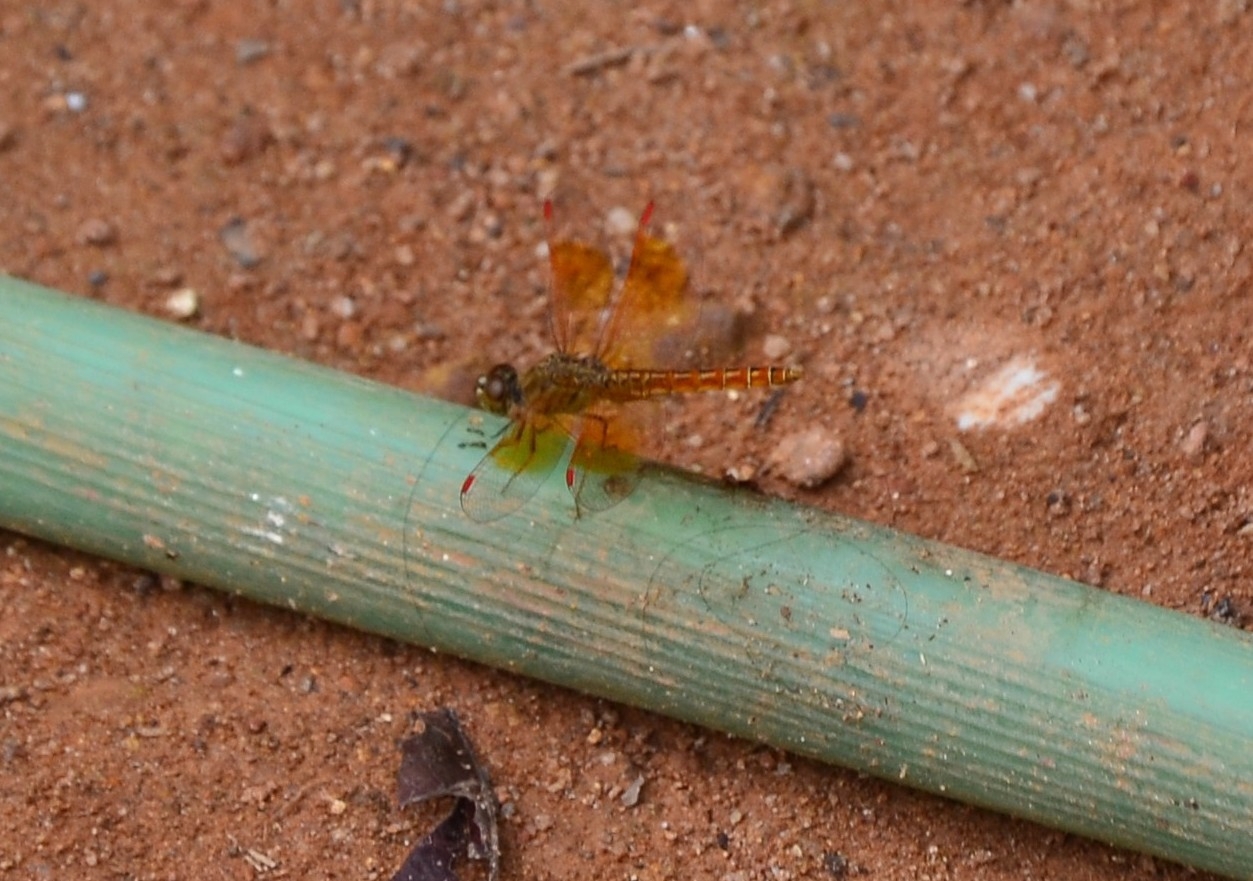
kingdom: Animalia
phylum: Arthropoda
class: Insecta
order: Odonata
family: Libellulidae
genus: Brachythemis
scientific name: Brachythemis contaminata
